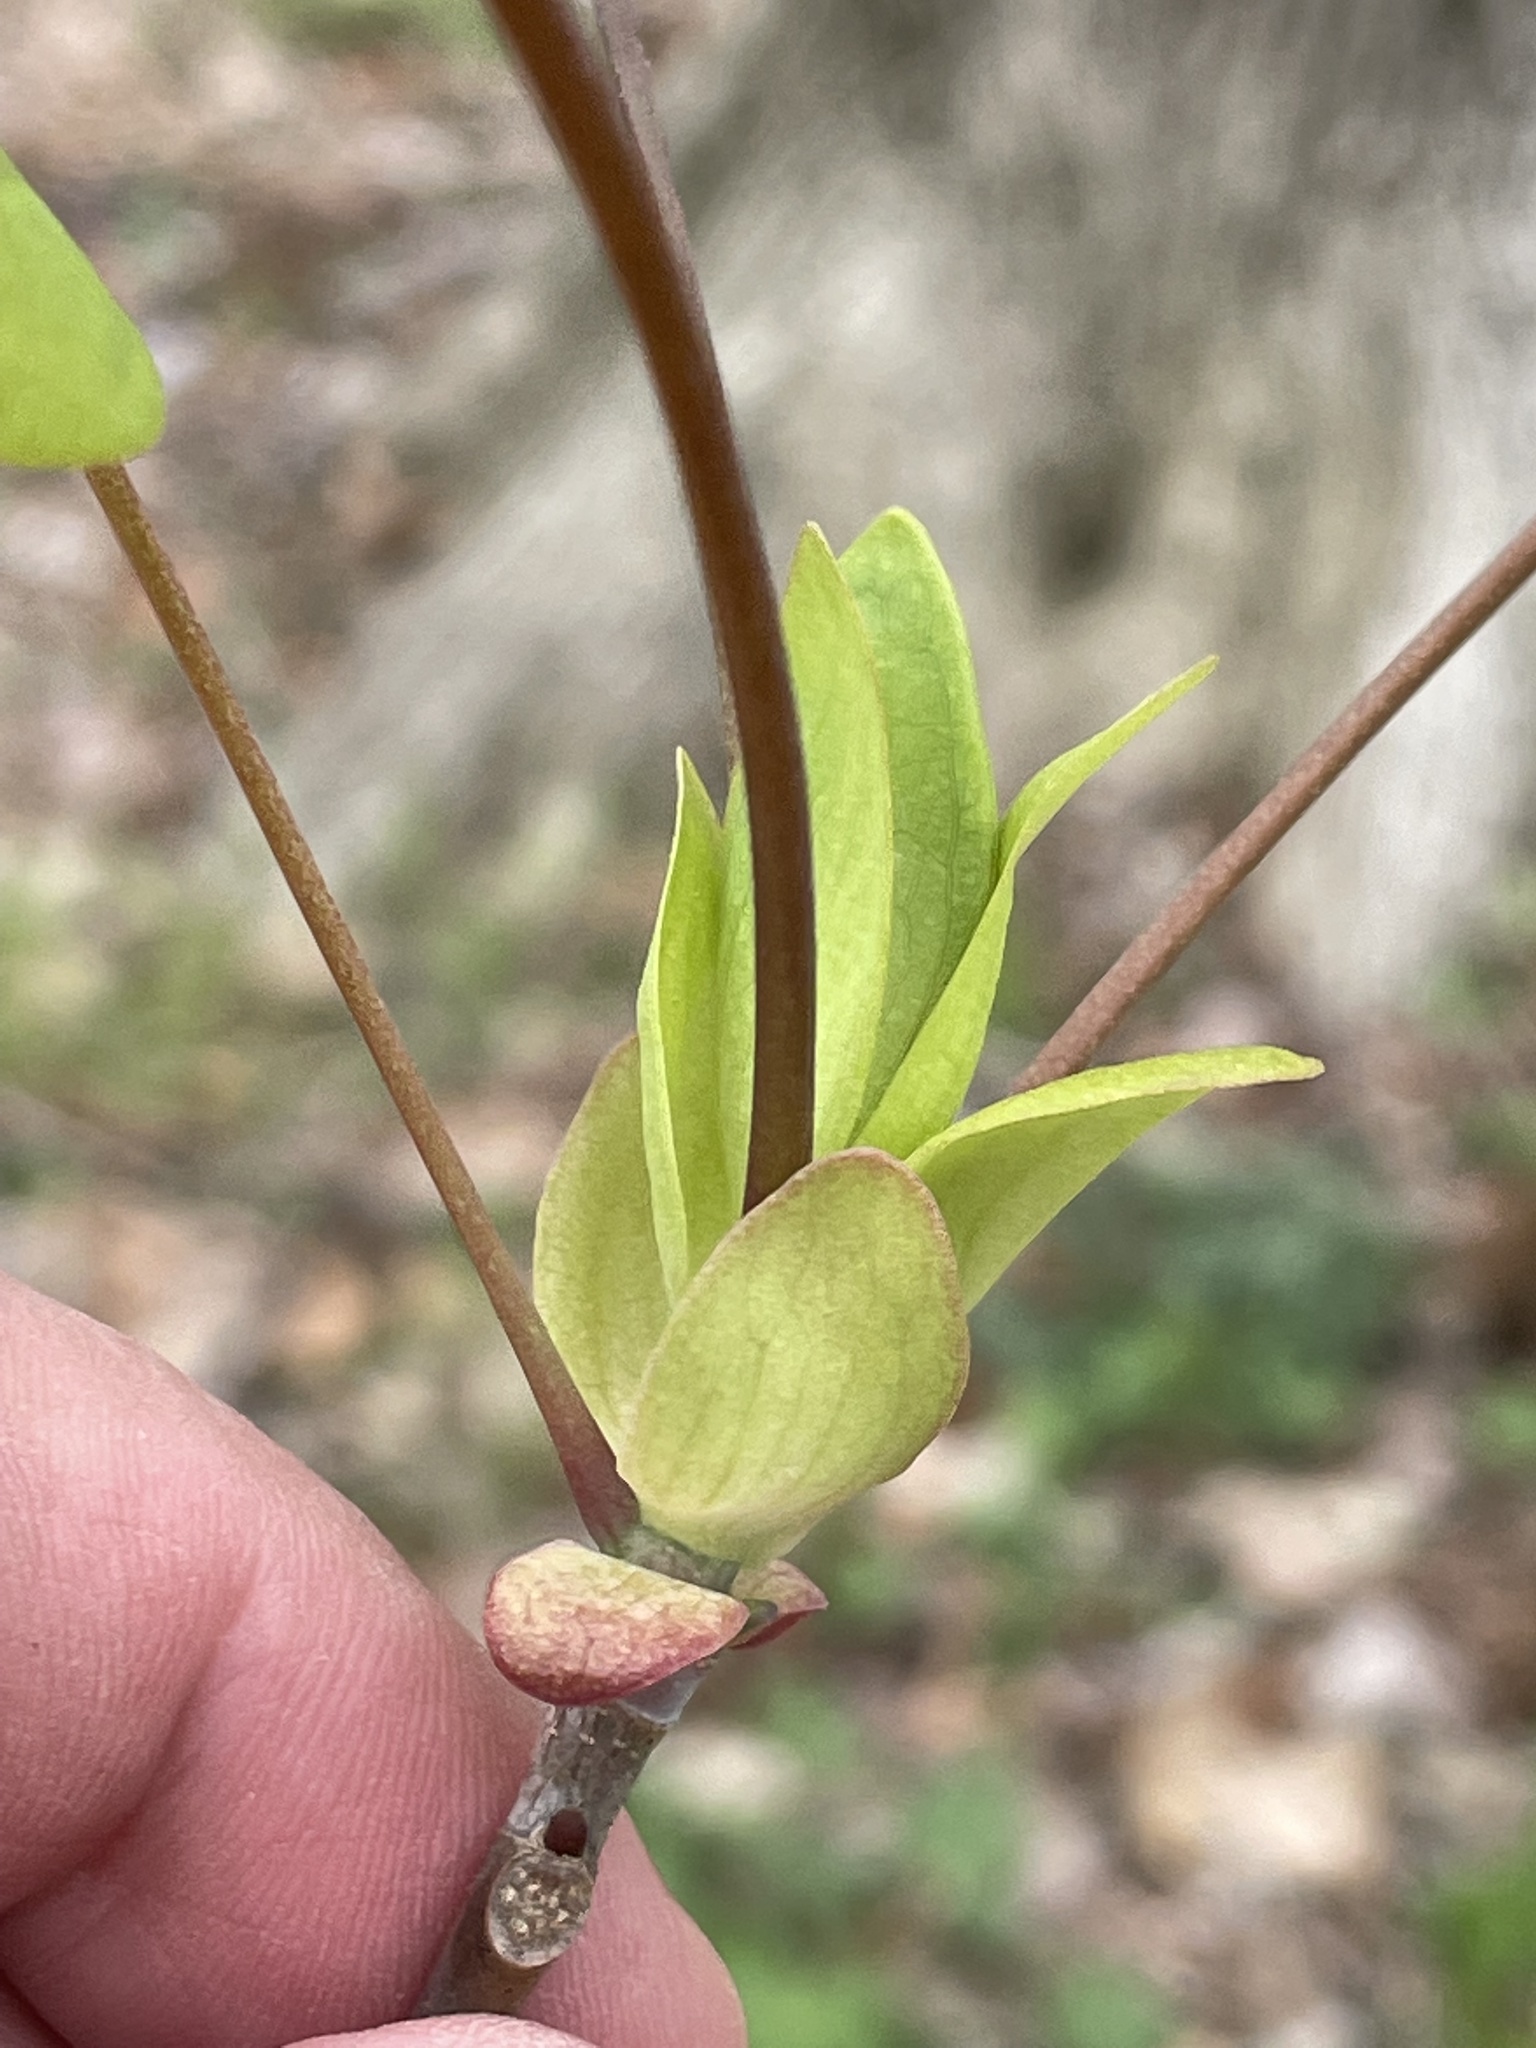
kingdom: Plantae
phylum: Tracheophyta
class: Magnoliopsida
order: Magnoliales
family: Magnoliaceae
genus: Liriodendron
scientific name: Liriodendron tulipifera
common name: Tulip tree
